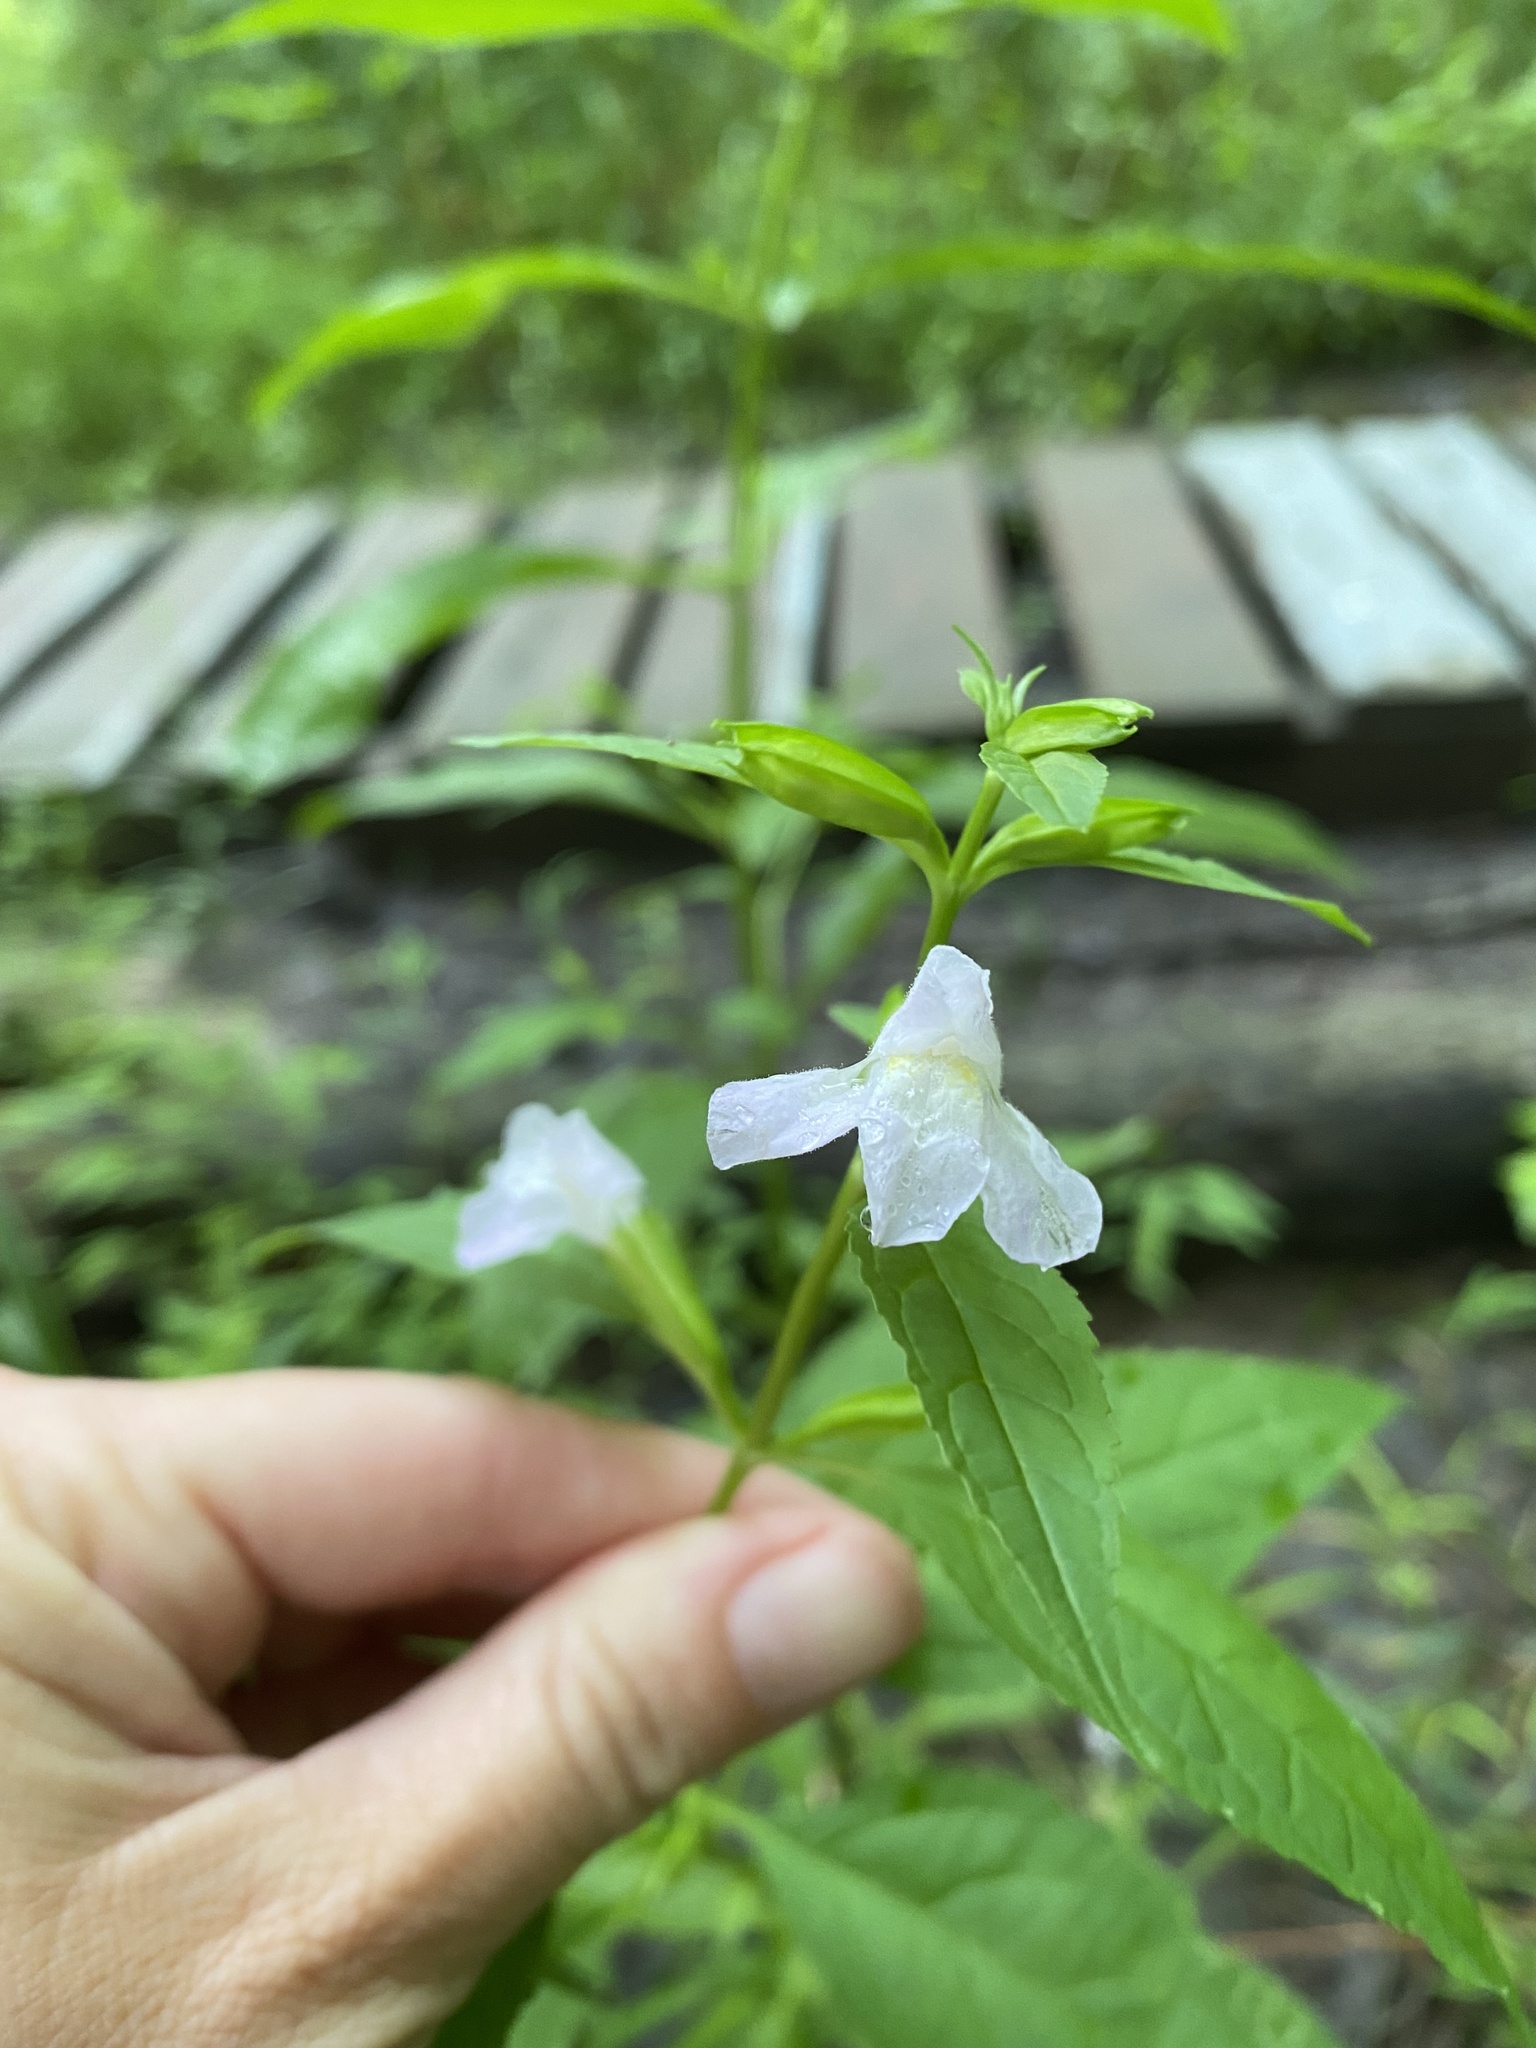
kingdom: Plantae
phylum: Tracheophyta
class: Magnoliopsida
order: Lamiales
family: Phrymaceae
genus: Mimulus
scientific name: Mimulus alatus
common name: Sharp-wing monkey-flower
